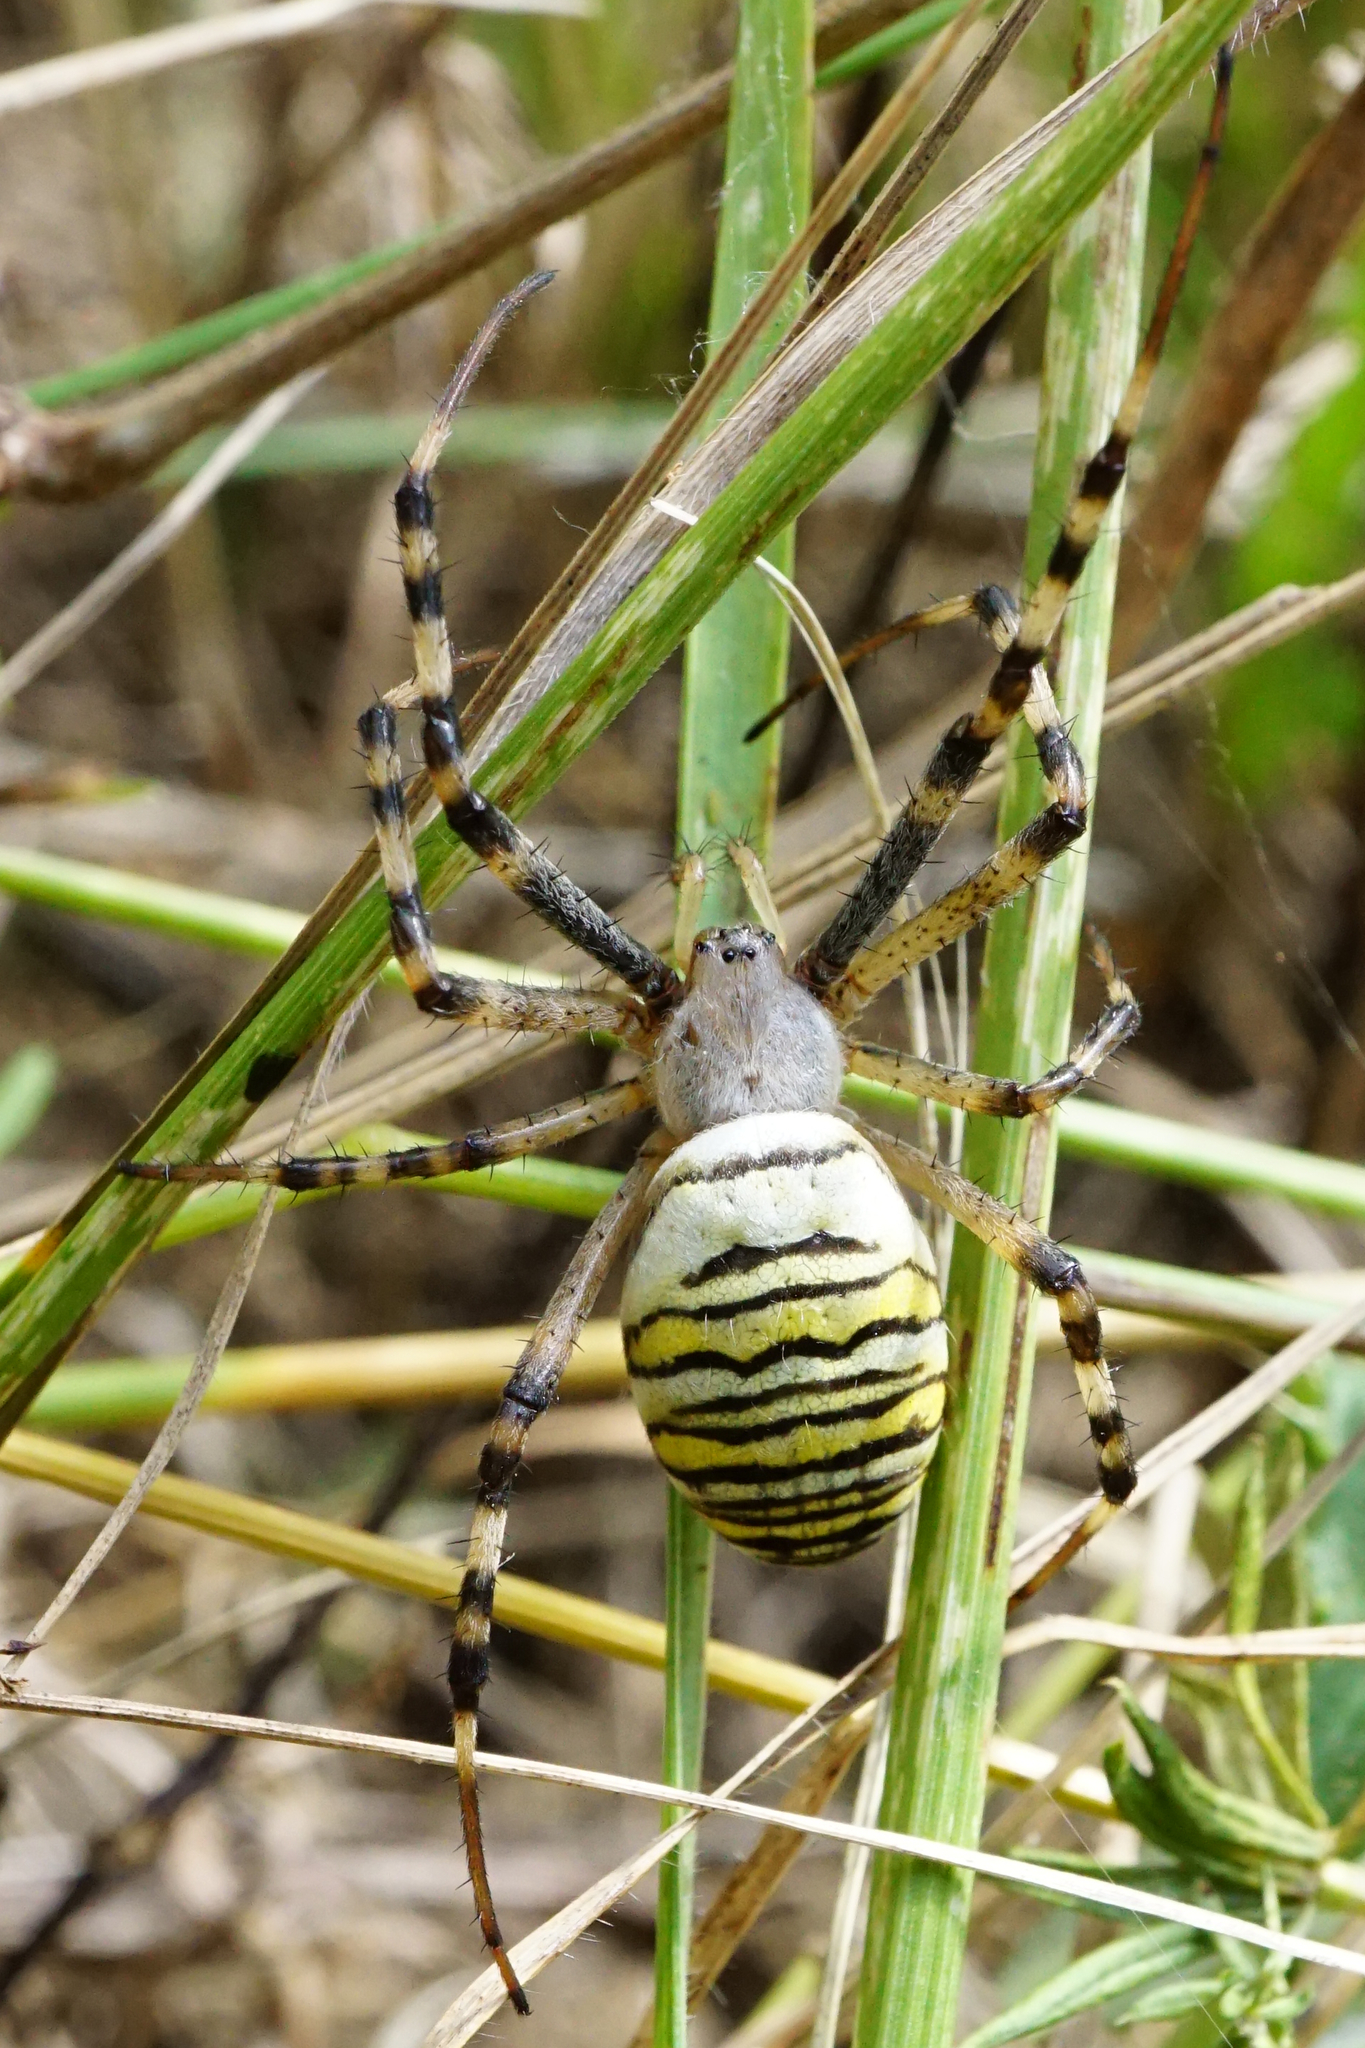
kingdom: Animalia
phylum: Arthropoda
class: Arachnida
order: Araneae
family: Araneidae
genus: Argiope
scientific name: Argiope bruennichi
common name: Wasp spider
